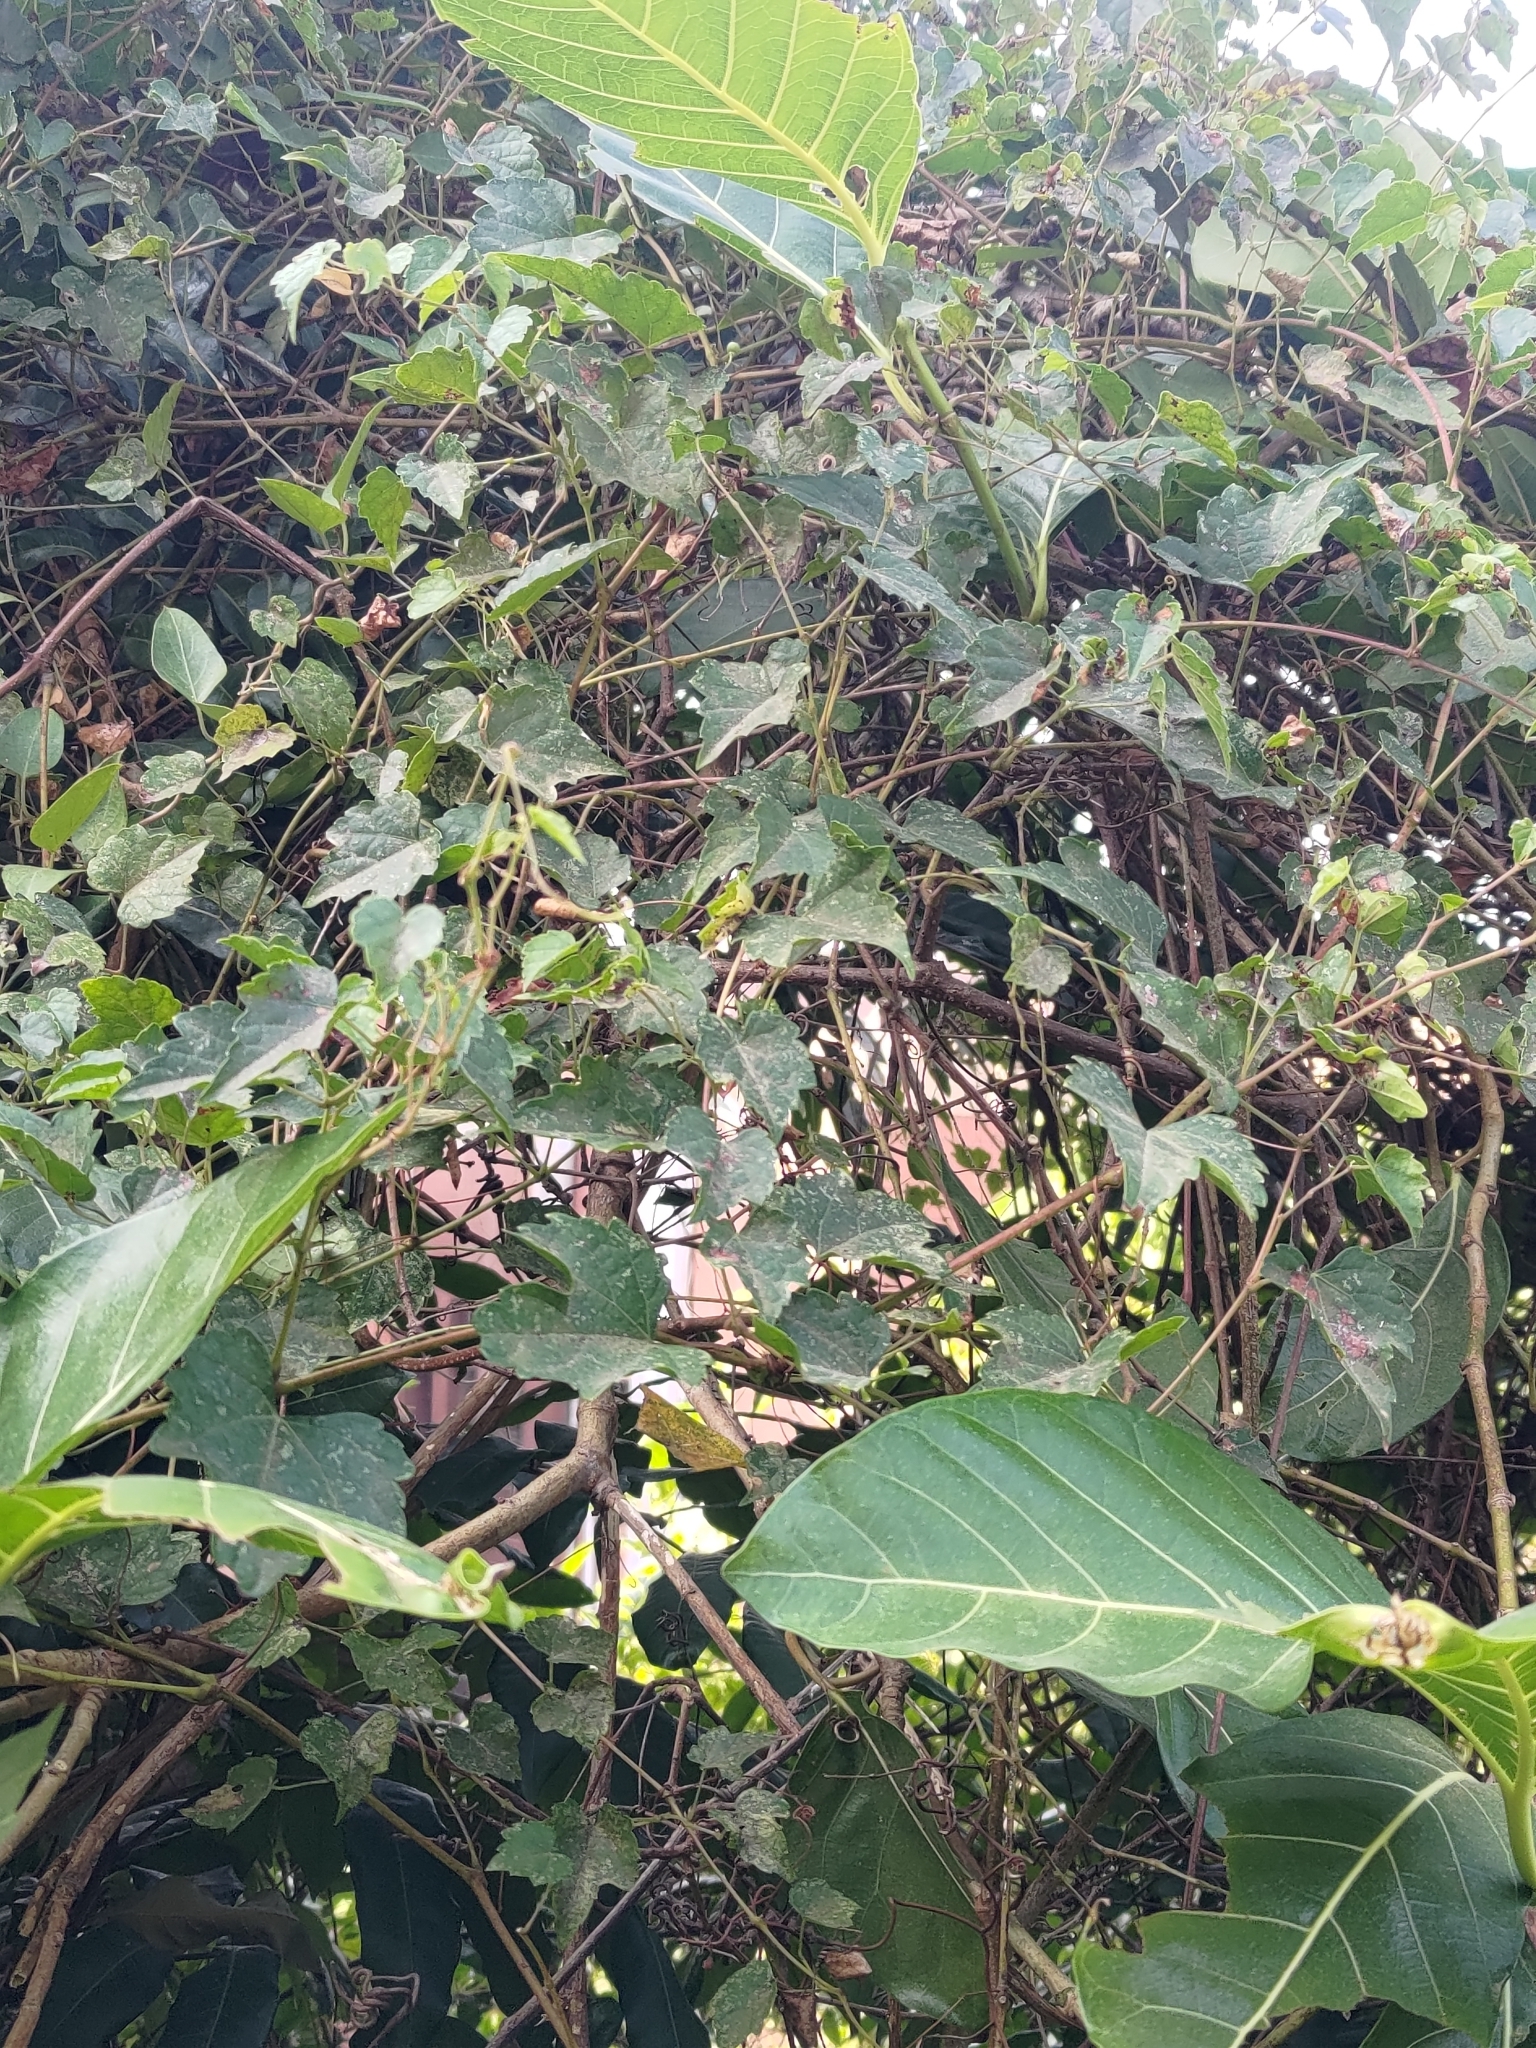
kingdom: Plantae
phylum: Tracheophyta
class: Magnoliopsida
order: Vitales
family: Vitaceae
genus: Ampelopsis
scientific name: Ampelopsis glandulosa
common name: Amur peppervine
